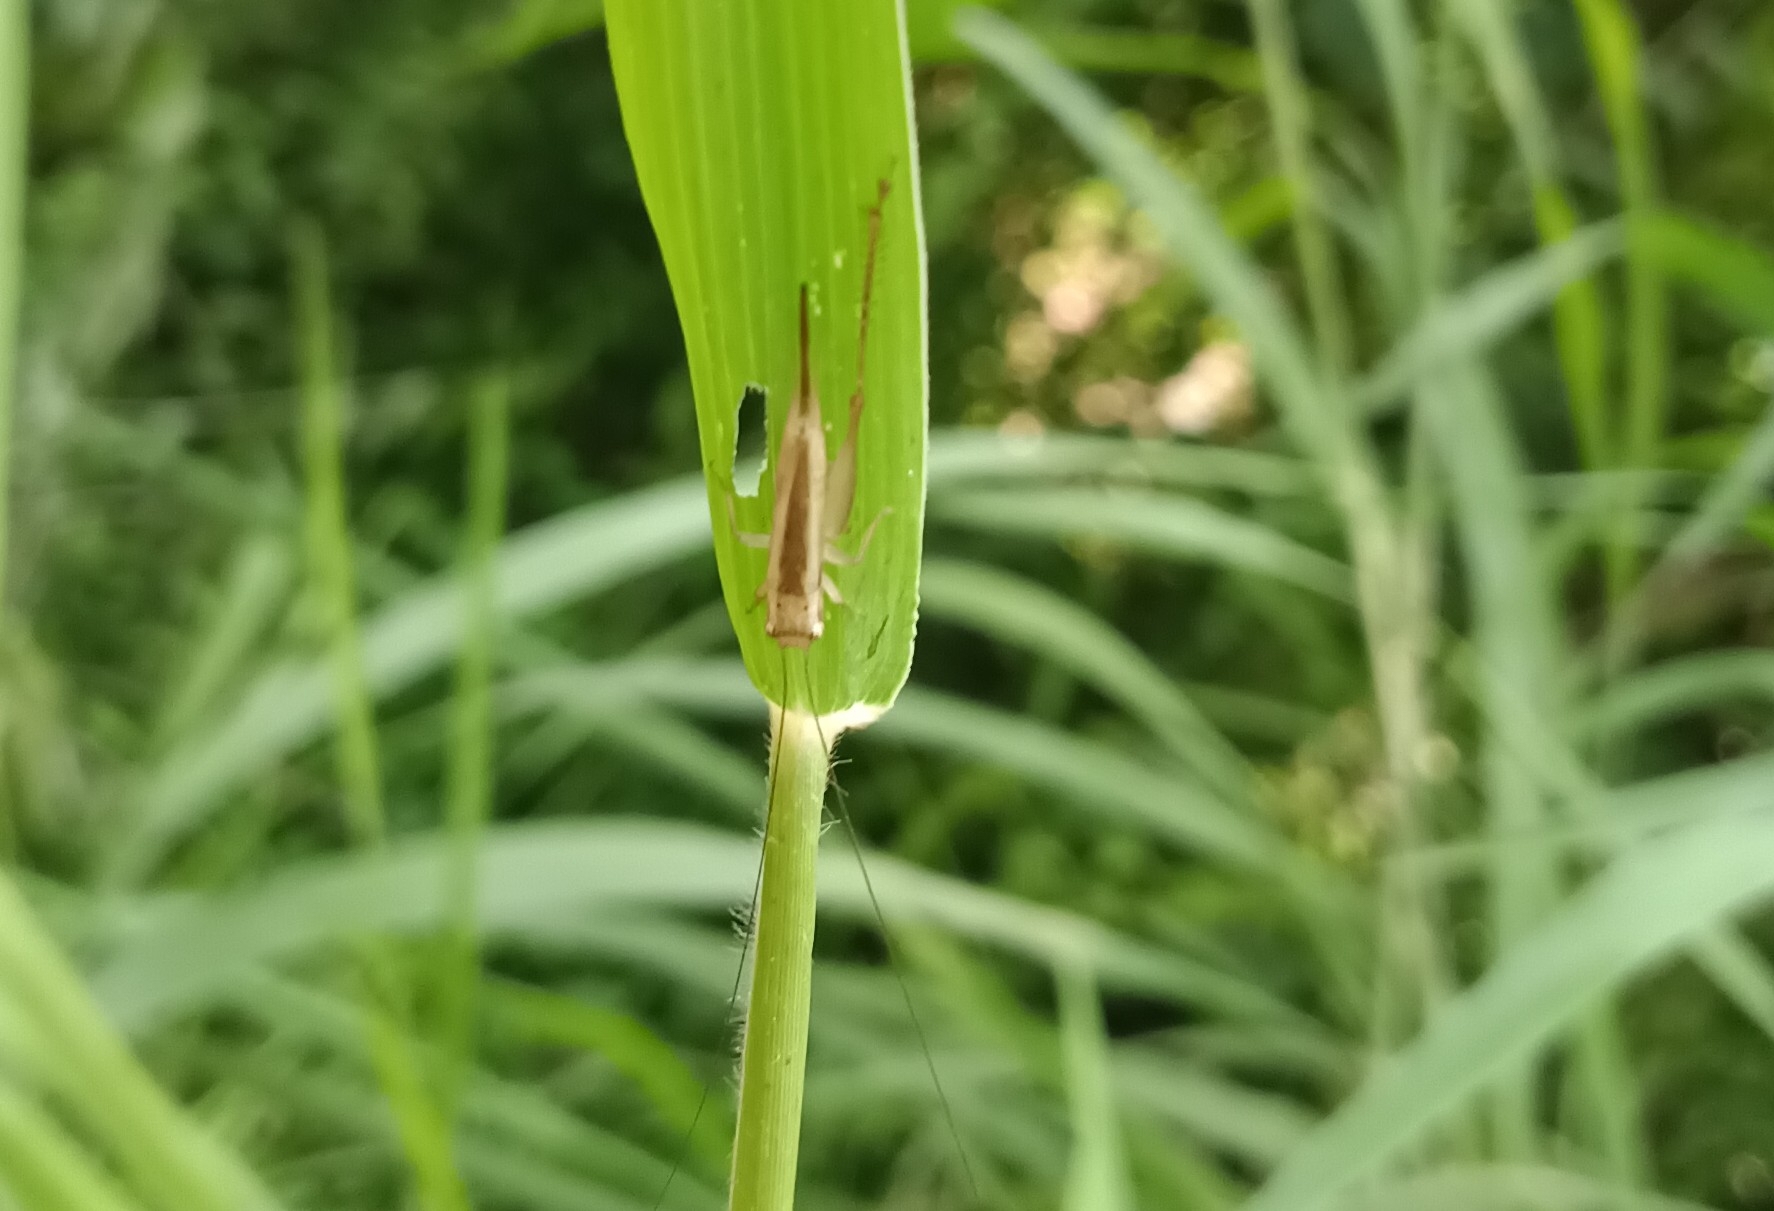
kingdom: Animalia
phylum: Arthropoda
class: Insecta
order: Orthoptera
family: Gryllidae
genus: Euscyrtus
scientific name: Euscyrtus concinnus
